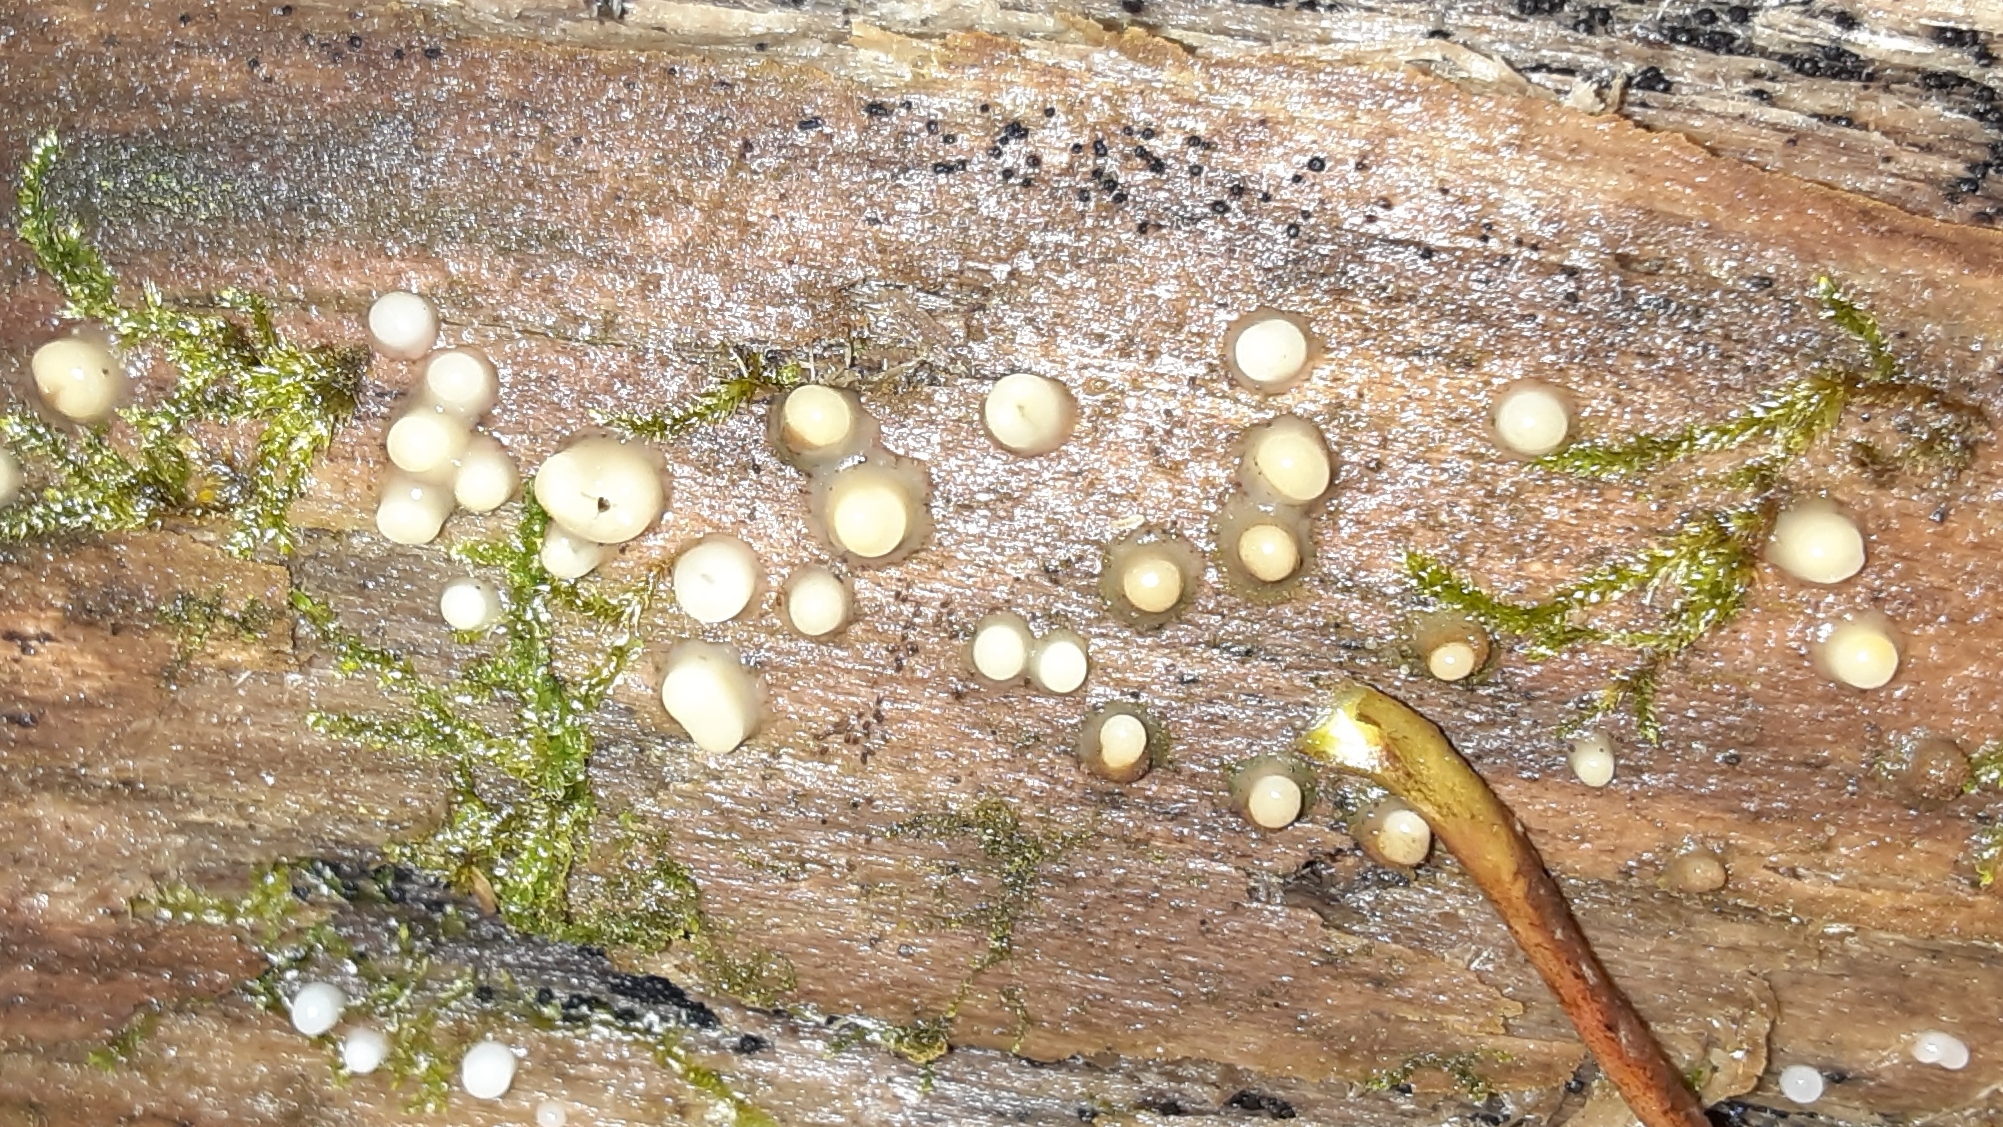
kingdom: Fungi
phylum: Basidiomycota
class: Atractiellomycetes
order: Atractiellales
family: Phleogenaceae
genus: Helicogloea
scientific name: Helicogloea compressa
